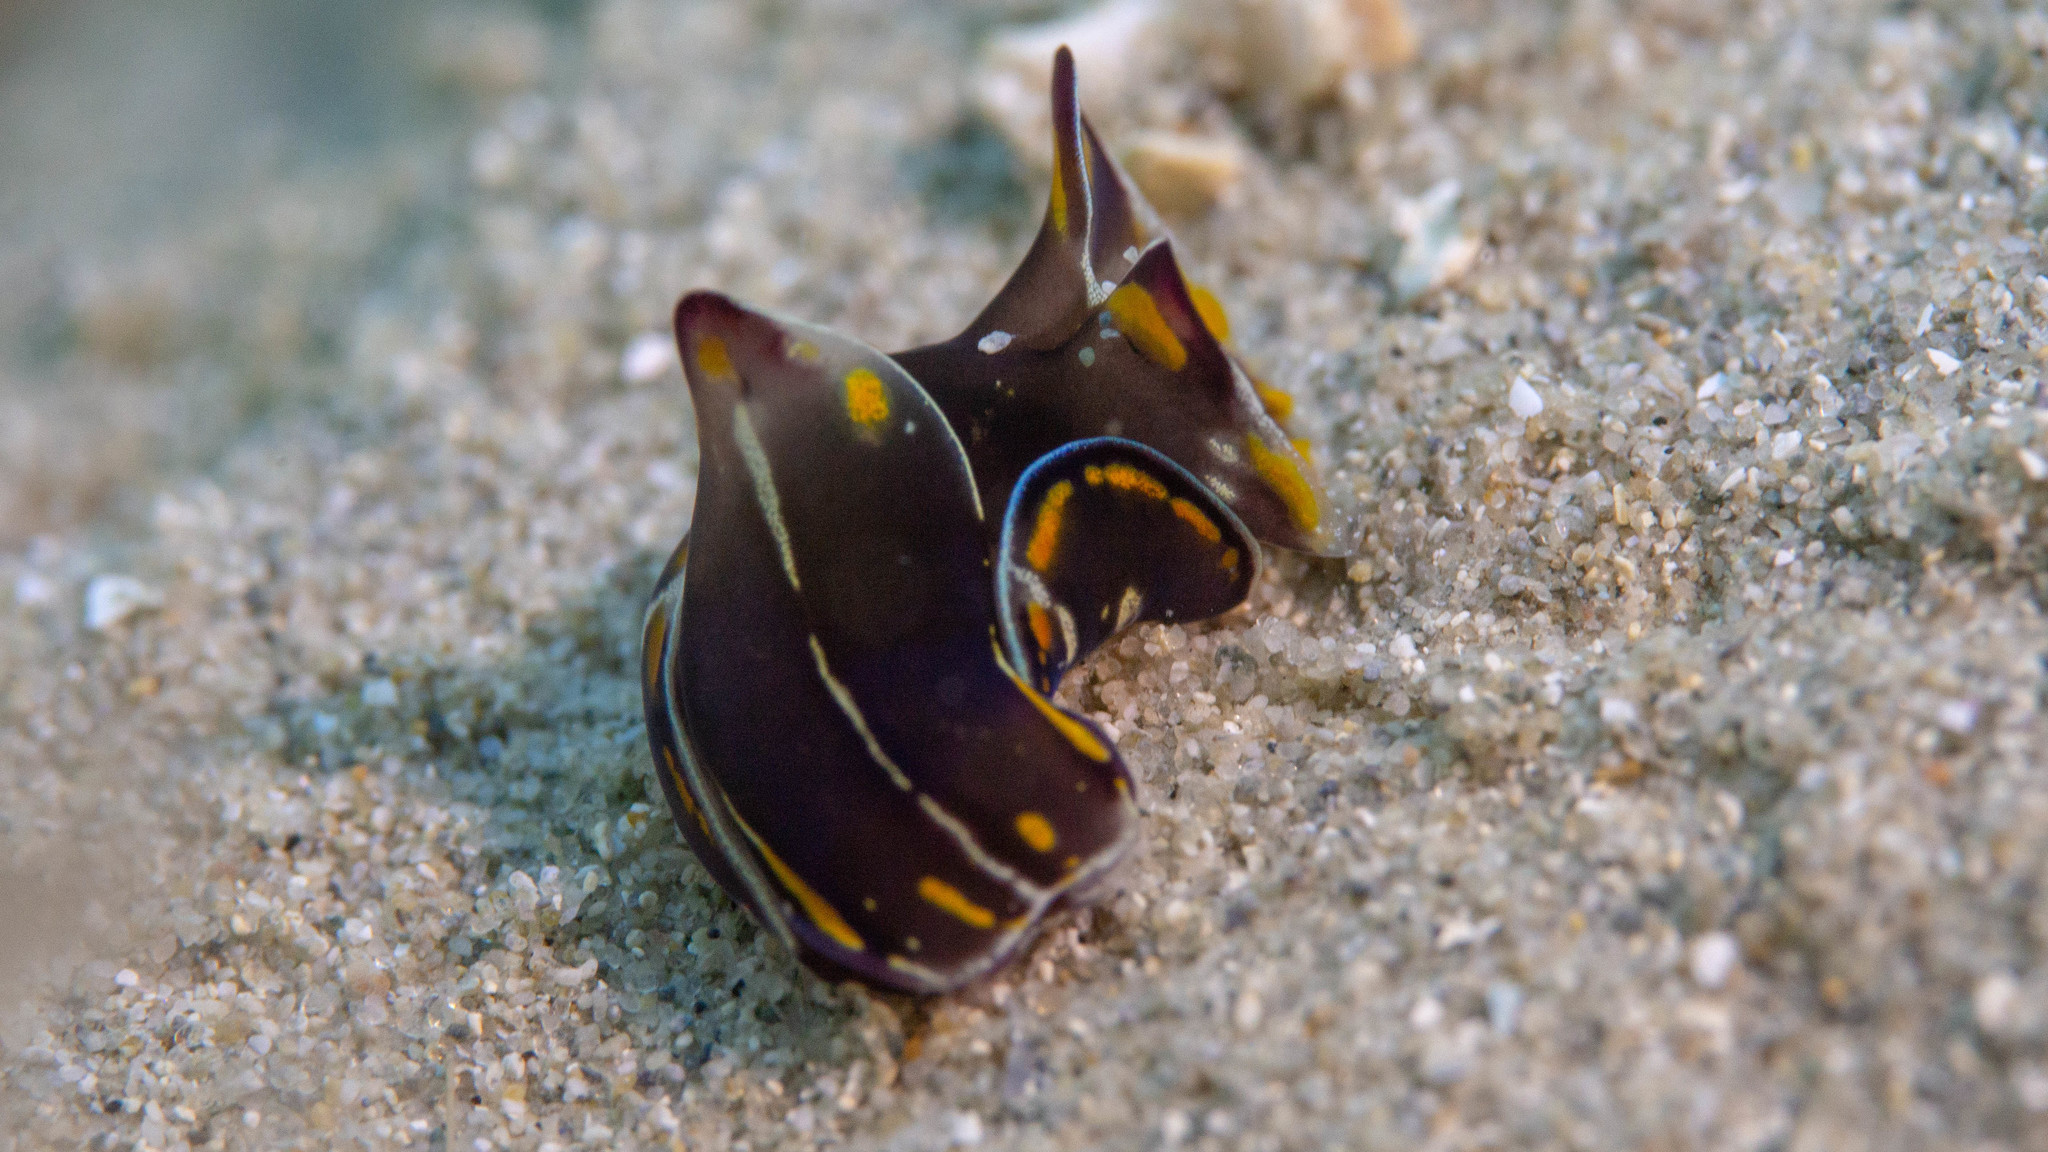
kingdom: Animalia
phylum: Mollusca
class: Gastropoda
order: Cephalaspidea
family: Aglajidae
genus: Philinopsis
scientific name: Philinopsis speciosa
